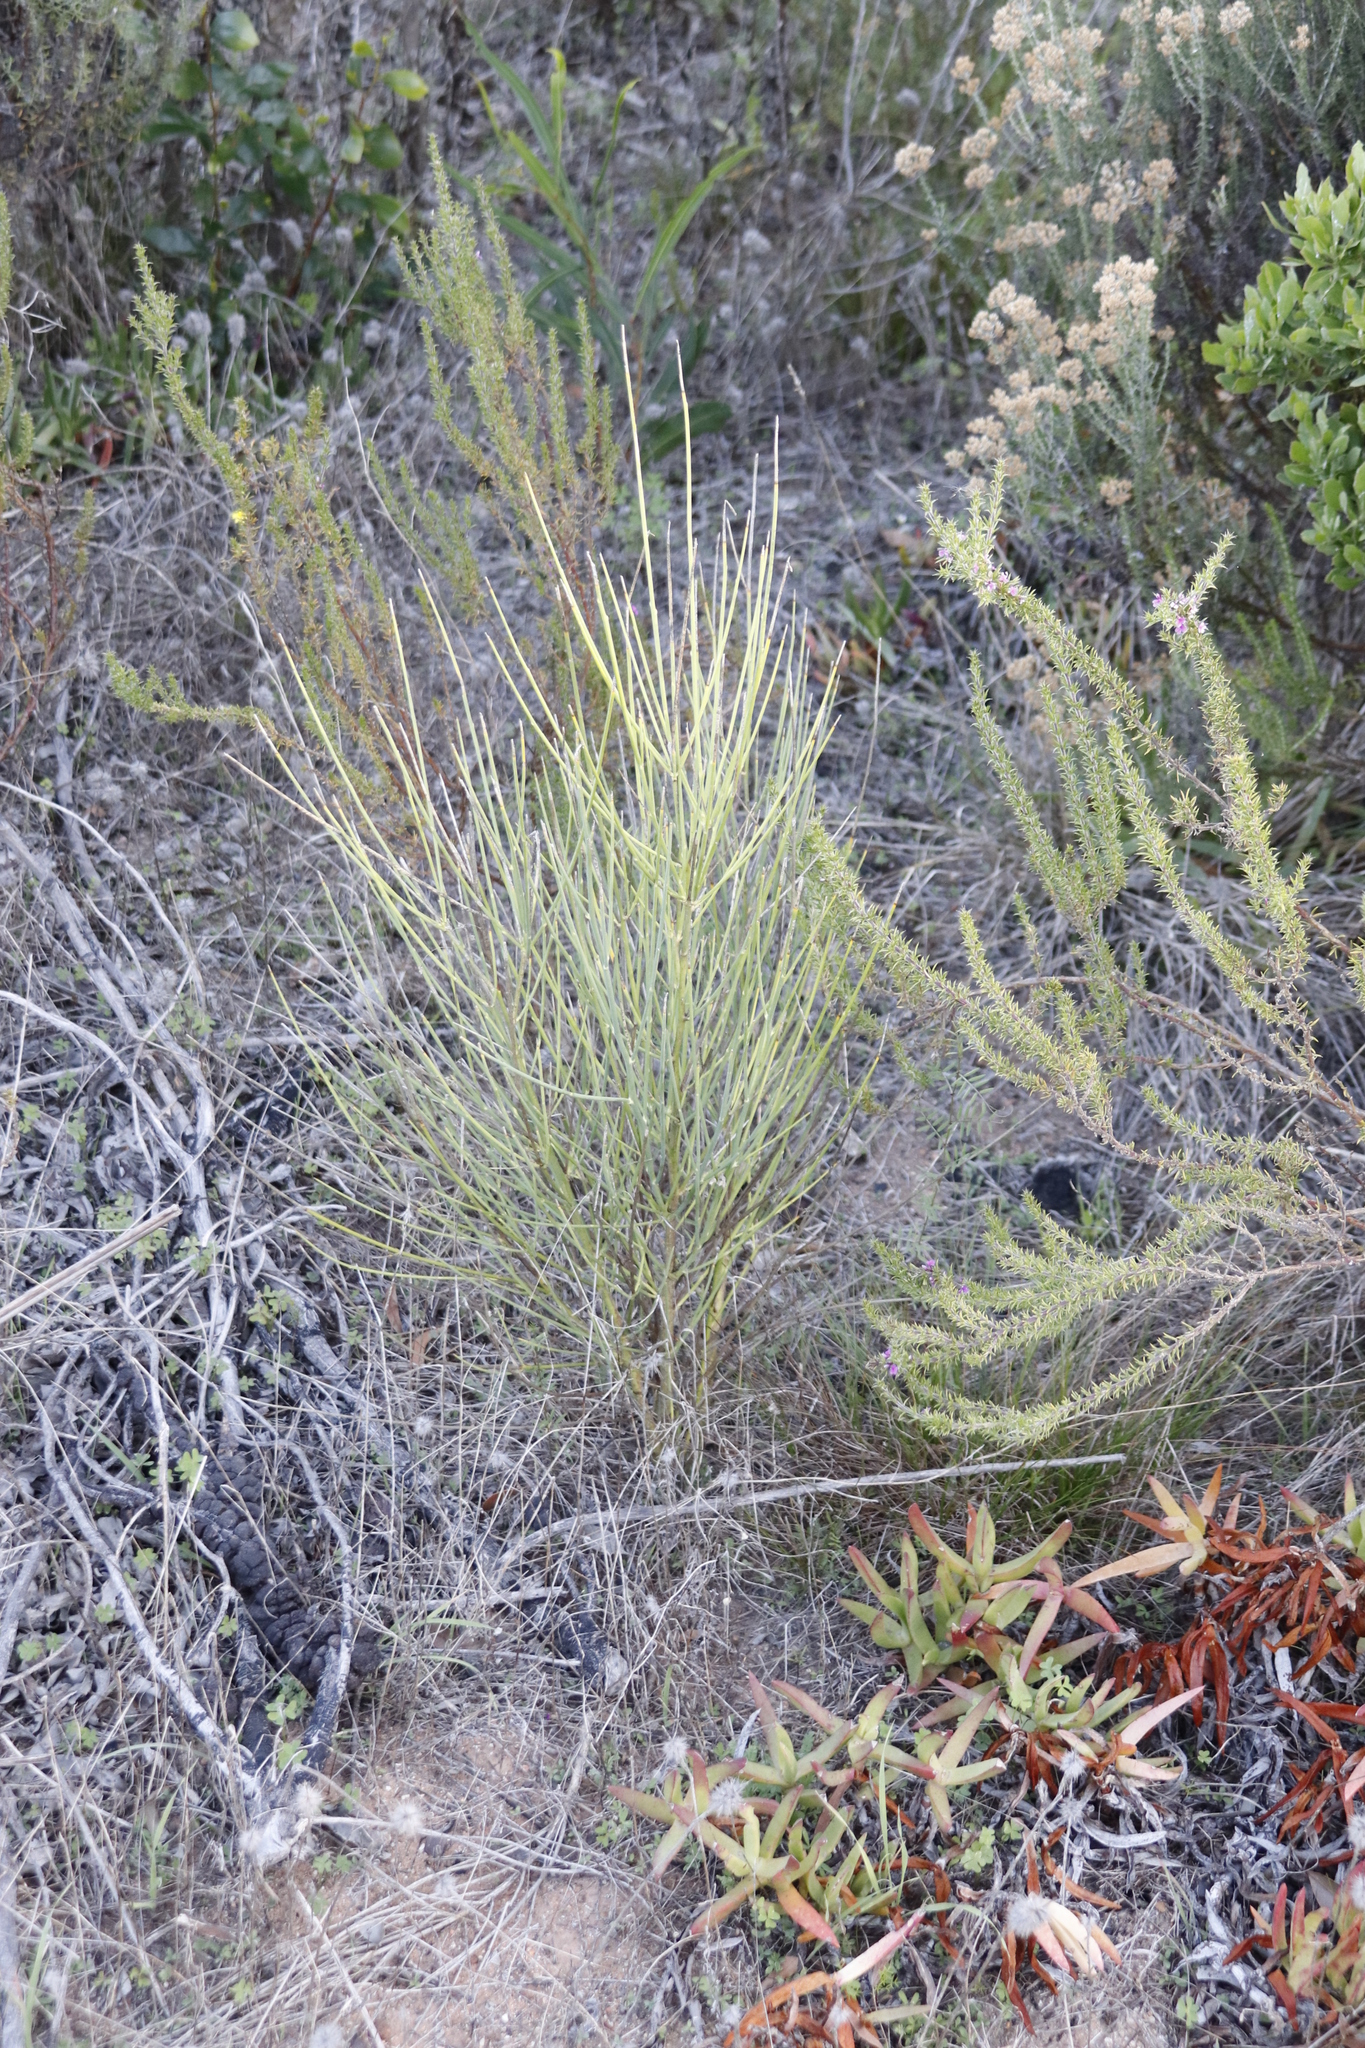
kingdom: Plantae
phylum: Tracheophyta
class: Magnoliopsida
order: Fabales
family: Fabaceae
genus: Spartium
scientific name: Spartium junceum
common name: Spanish broom
